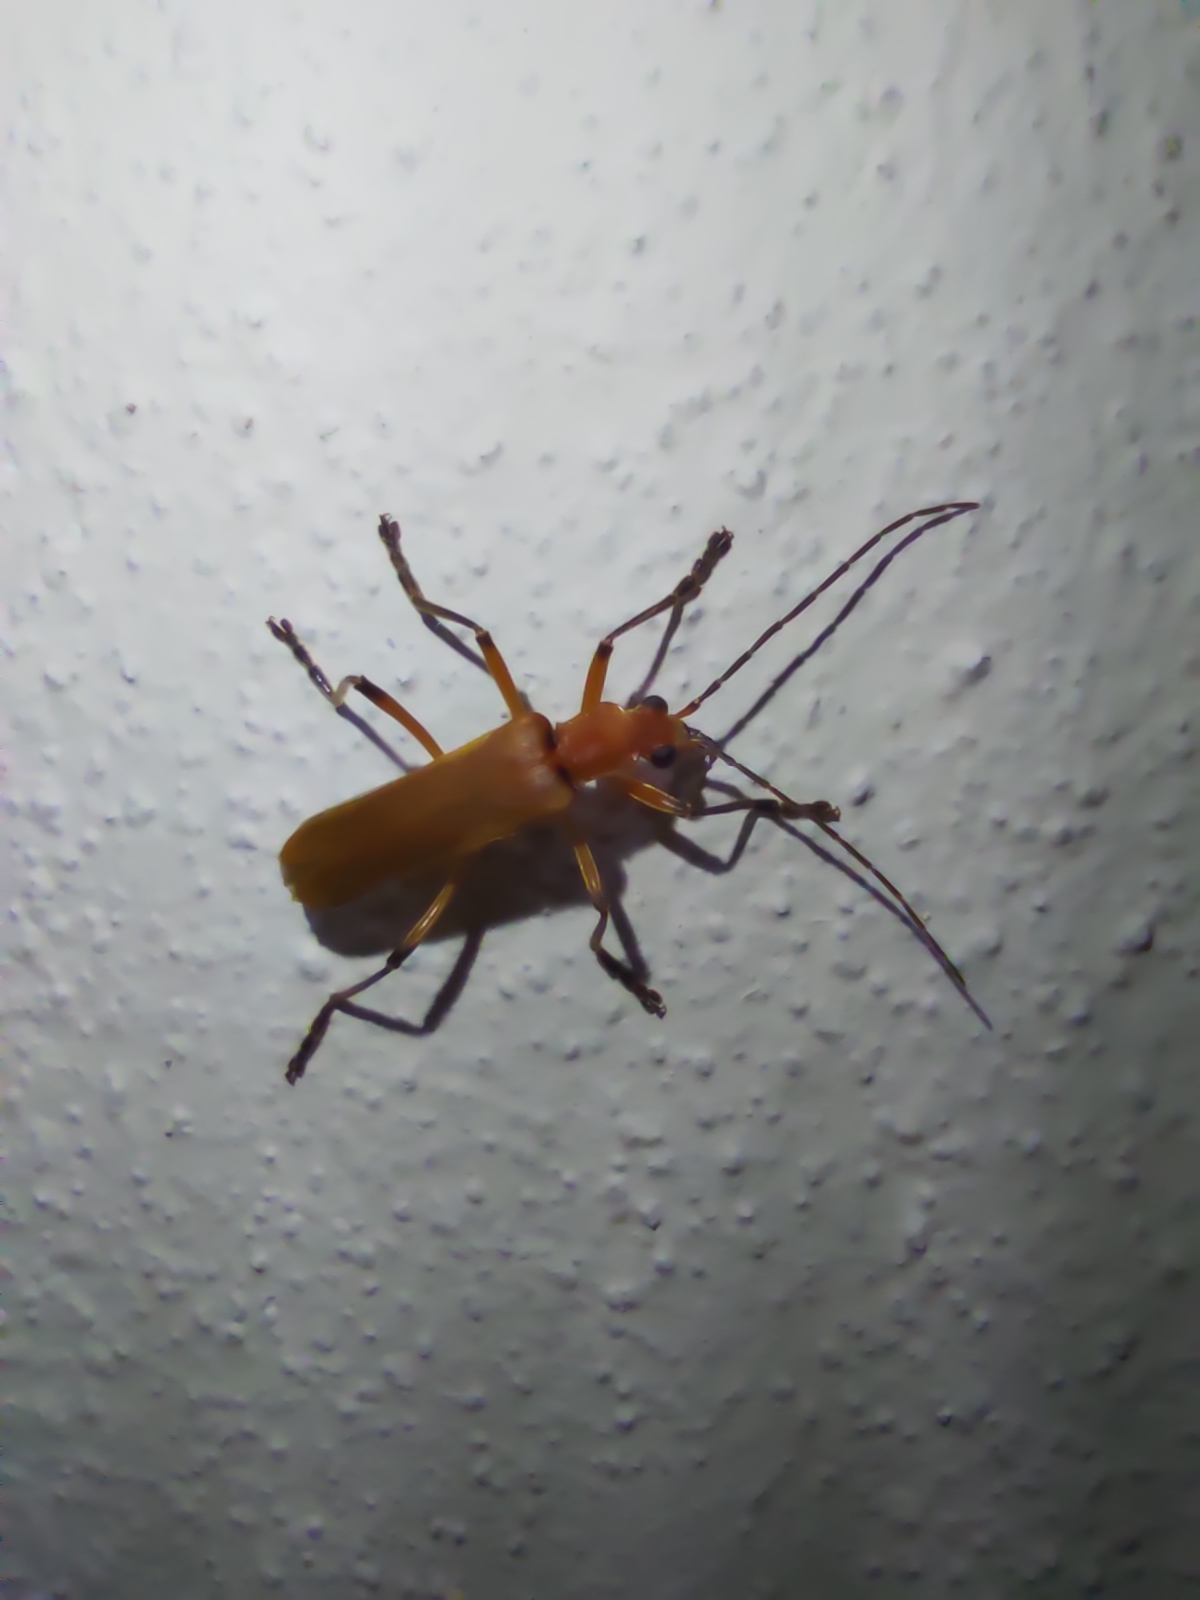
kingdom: Animalia
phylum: Arthropoda
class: Insecta
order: Coleoptera
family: Cantharidae
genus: Chauliognathus
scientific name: Chauliognathus
